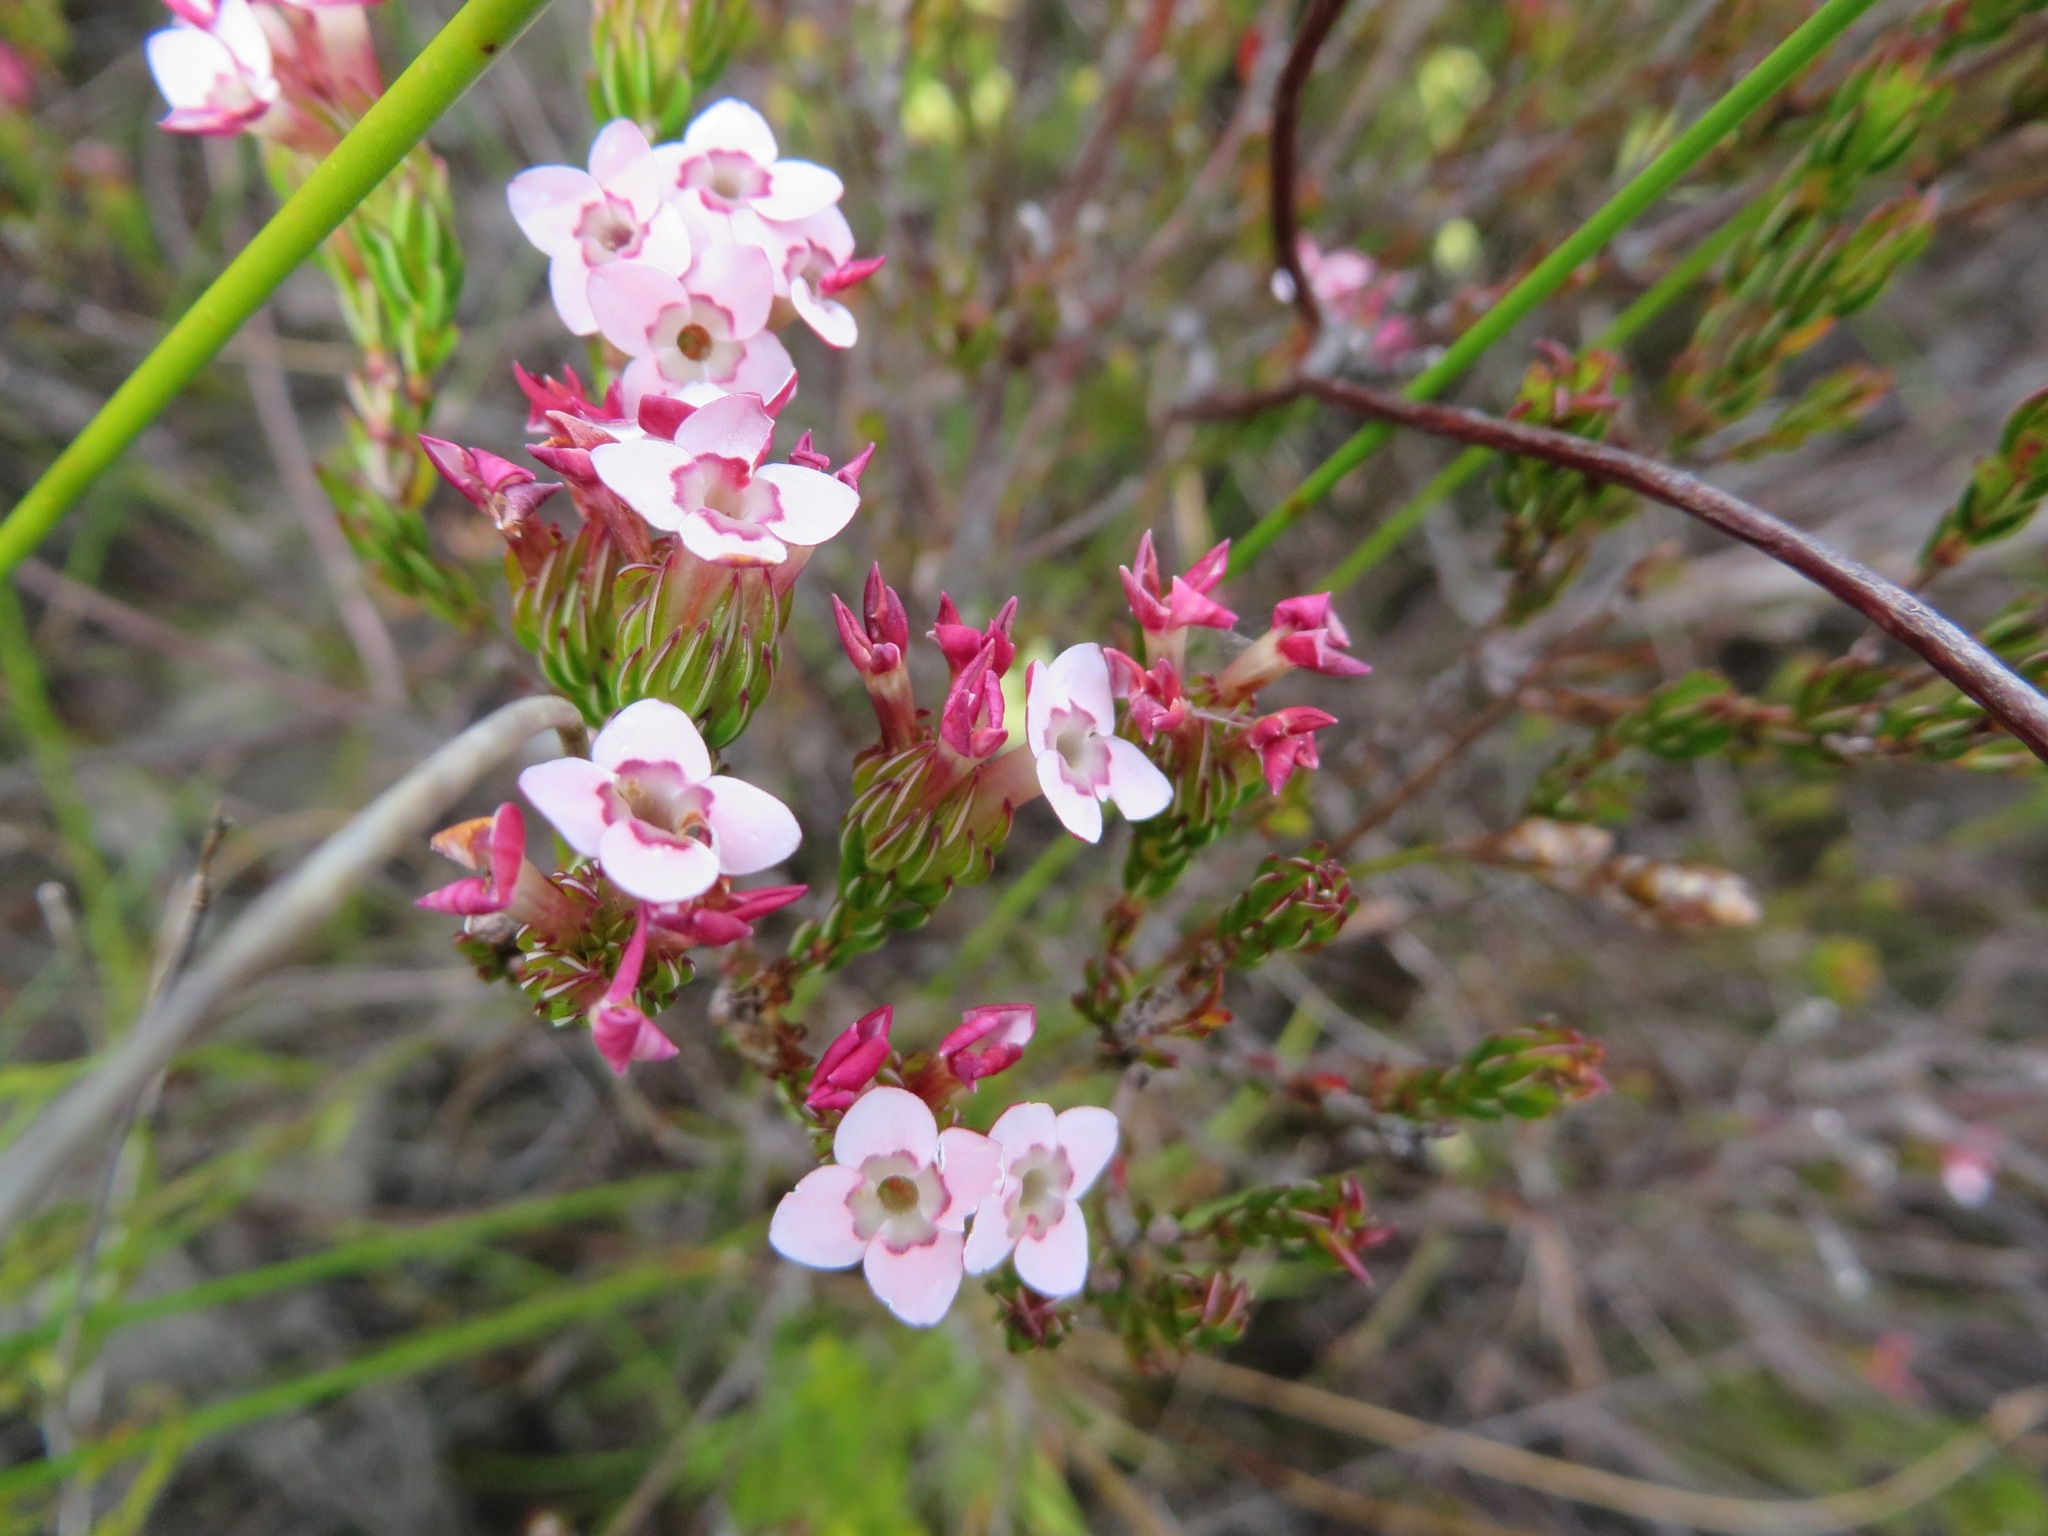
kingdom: Plantae
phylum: Tracheophyta
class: Magnoliopsida
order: Ericales
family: Ericaceae
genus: Erica
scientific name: Erica fastigiata
